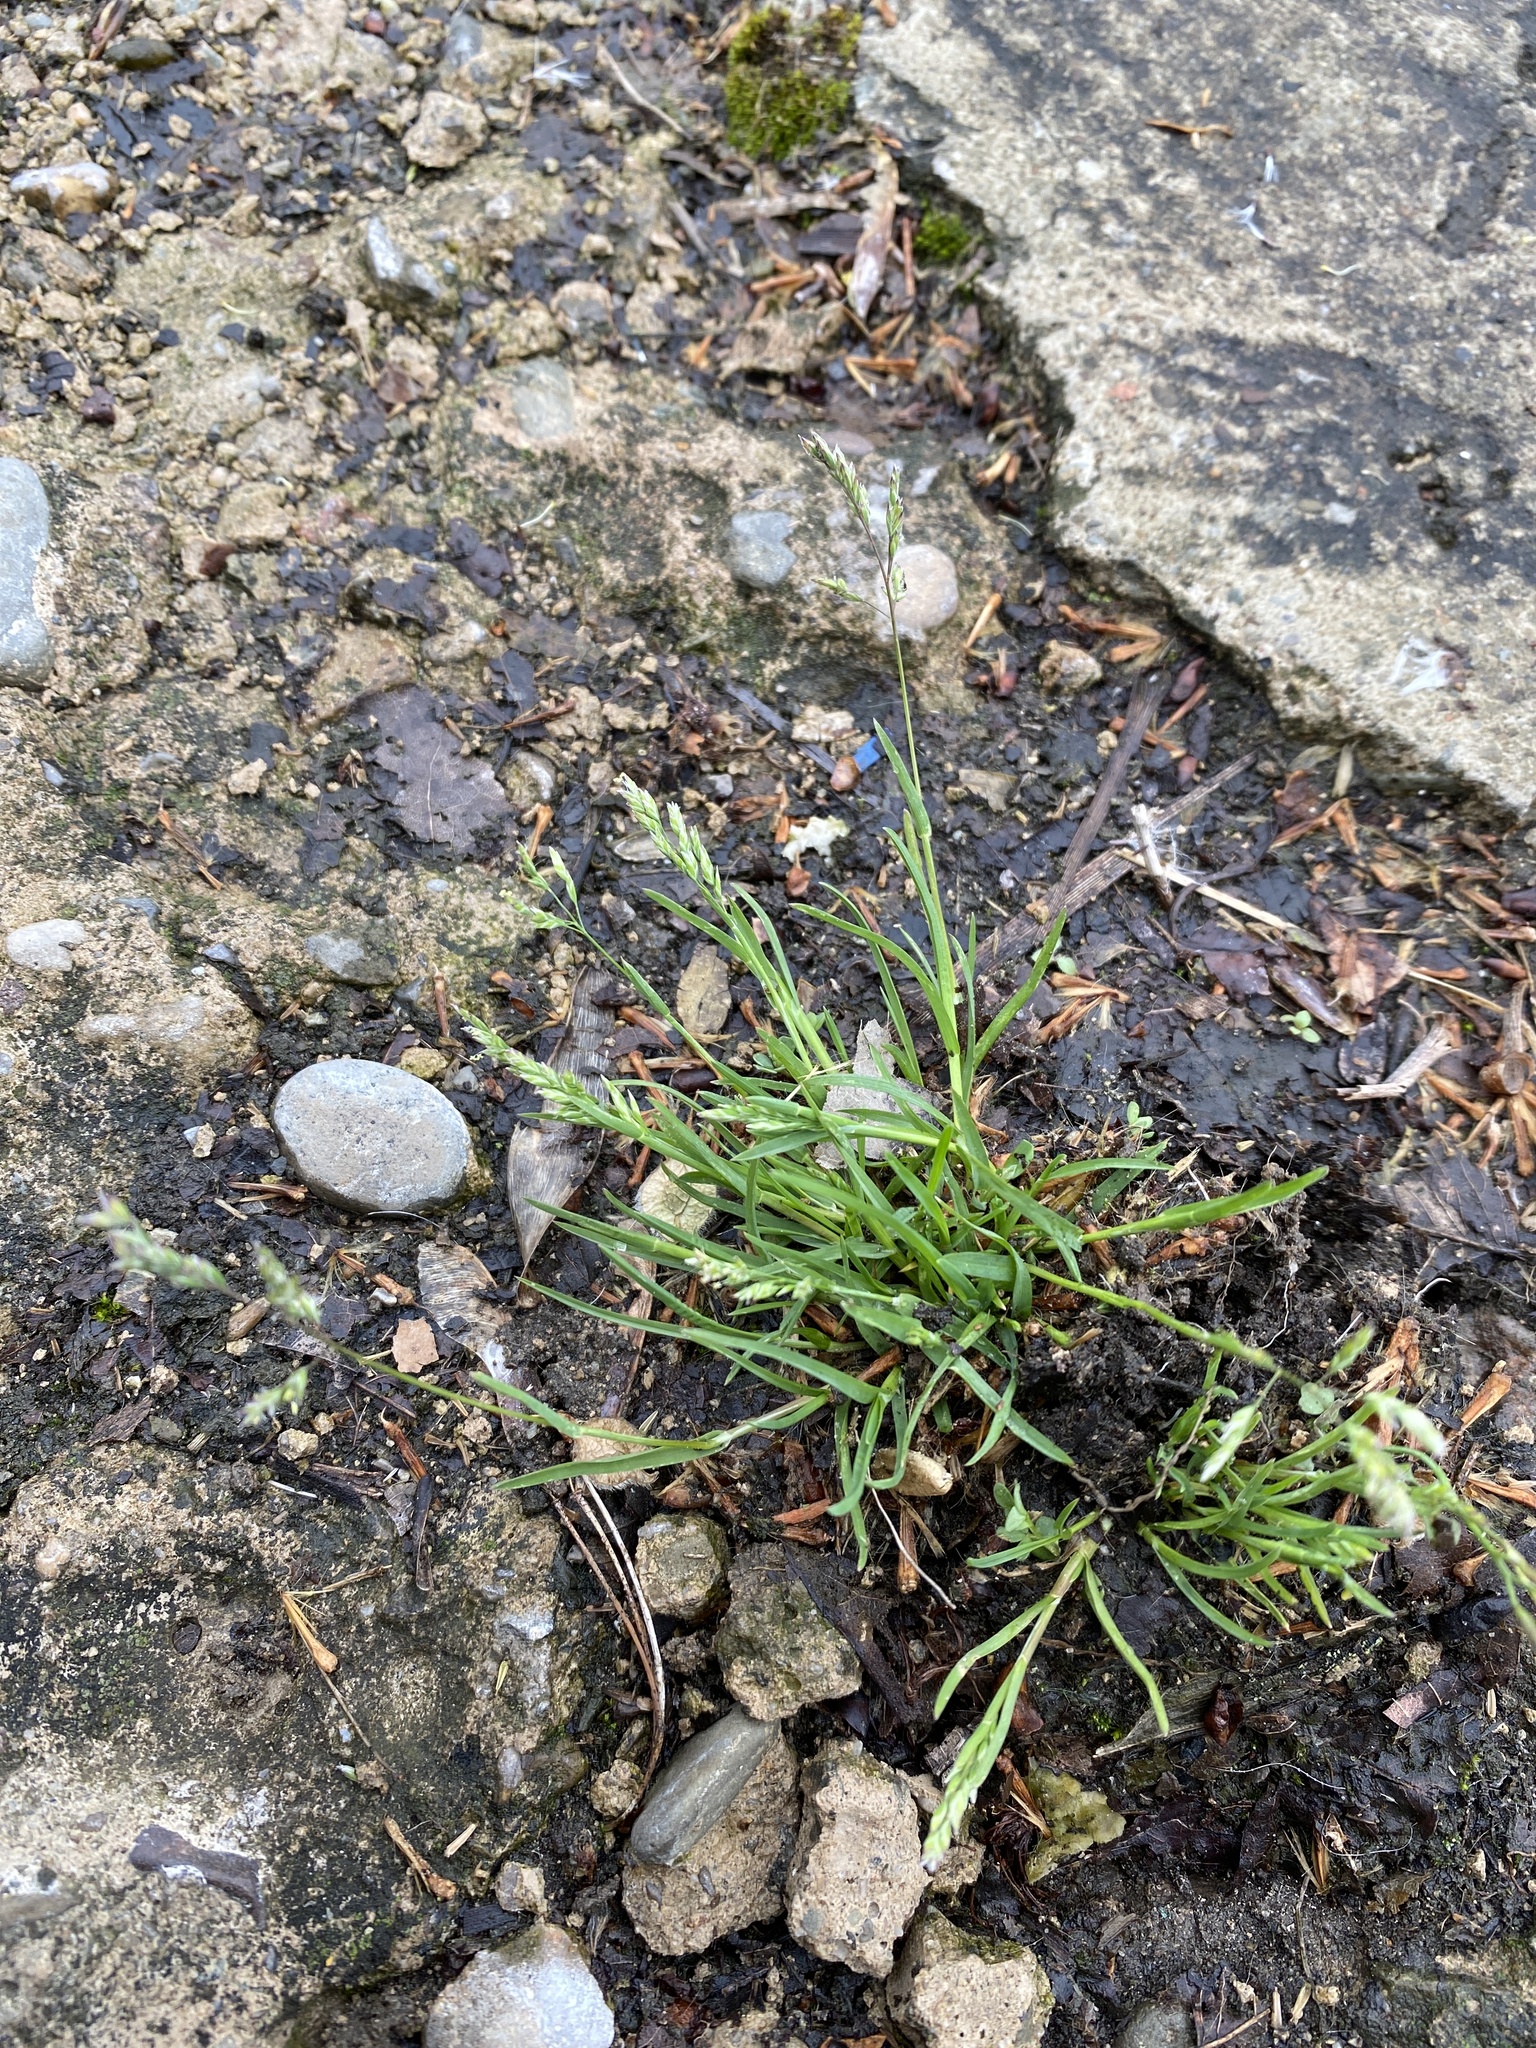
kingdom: Plantae
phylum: Tracheophyta
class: Liliopsida
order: Poales
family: Poaceae
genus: Poa
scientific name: Poa annua
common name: Annual bluegrass
